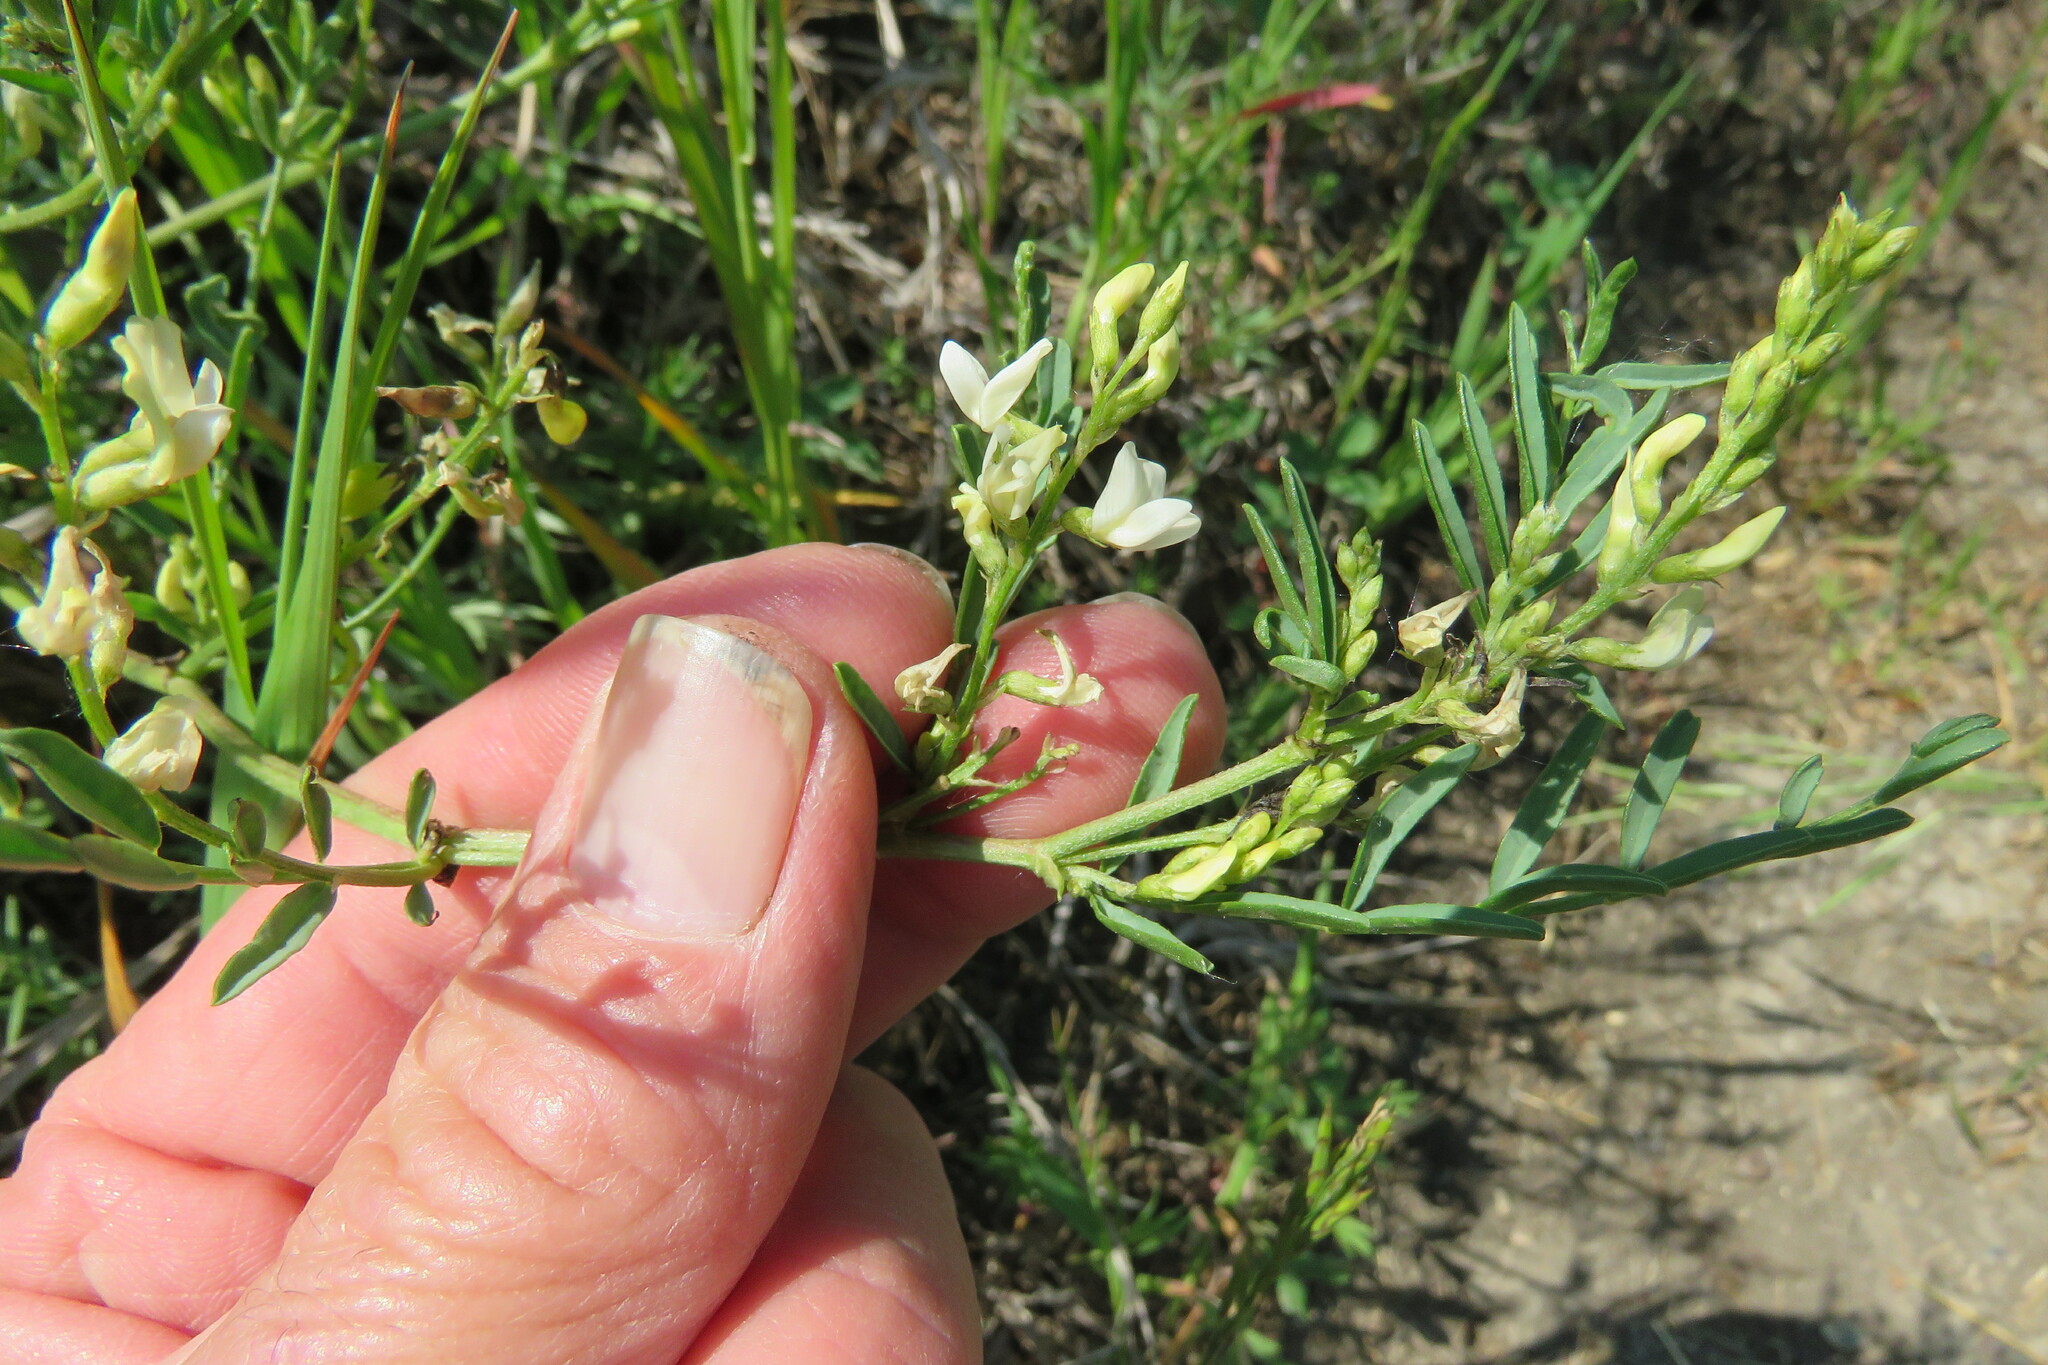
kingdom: Plantae
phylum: Tracheophyta
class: Magnoliopsida
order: Fabales
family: Fabaceae
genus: Astragalus
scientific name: Astragalus tenellus
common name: Pulse milk-vetch
